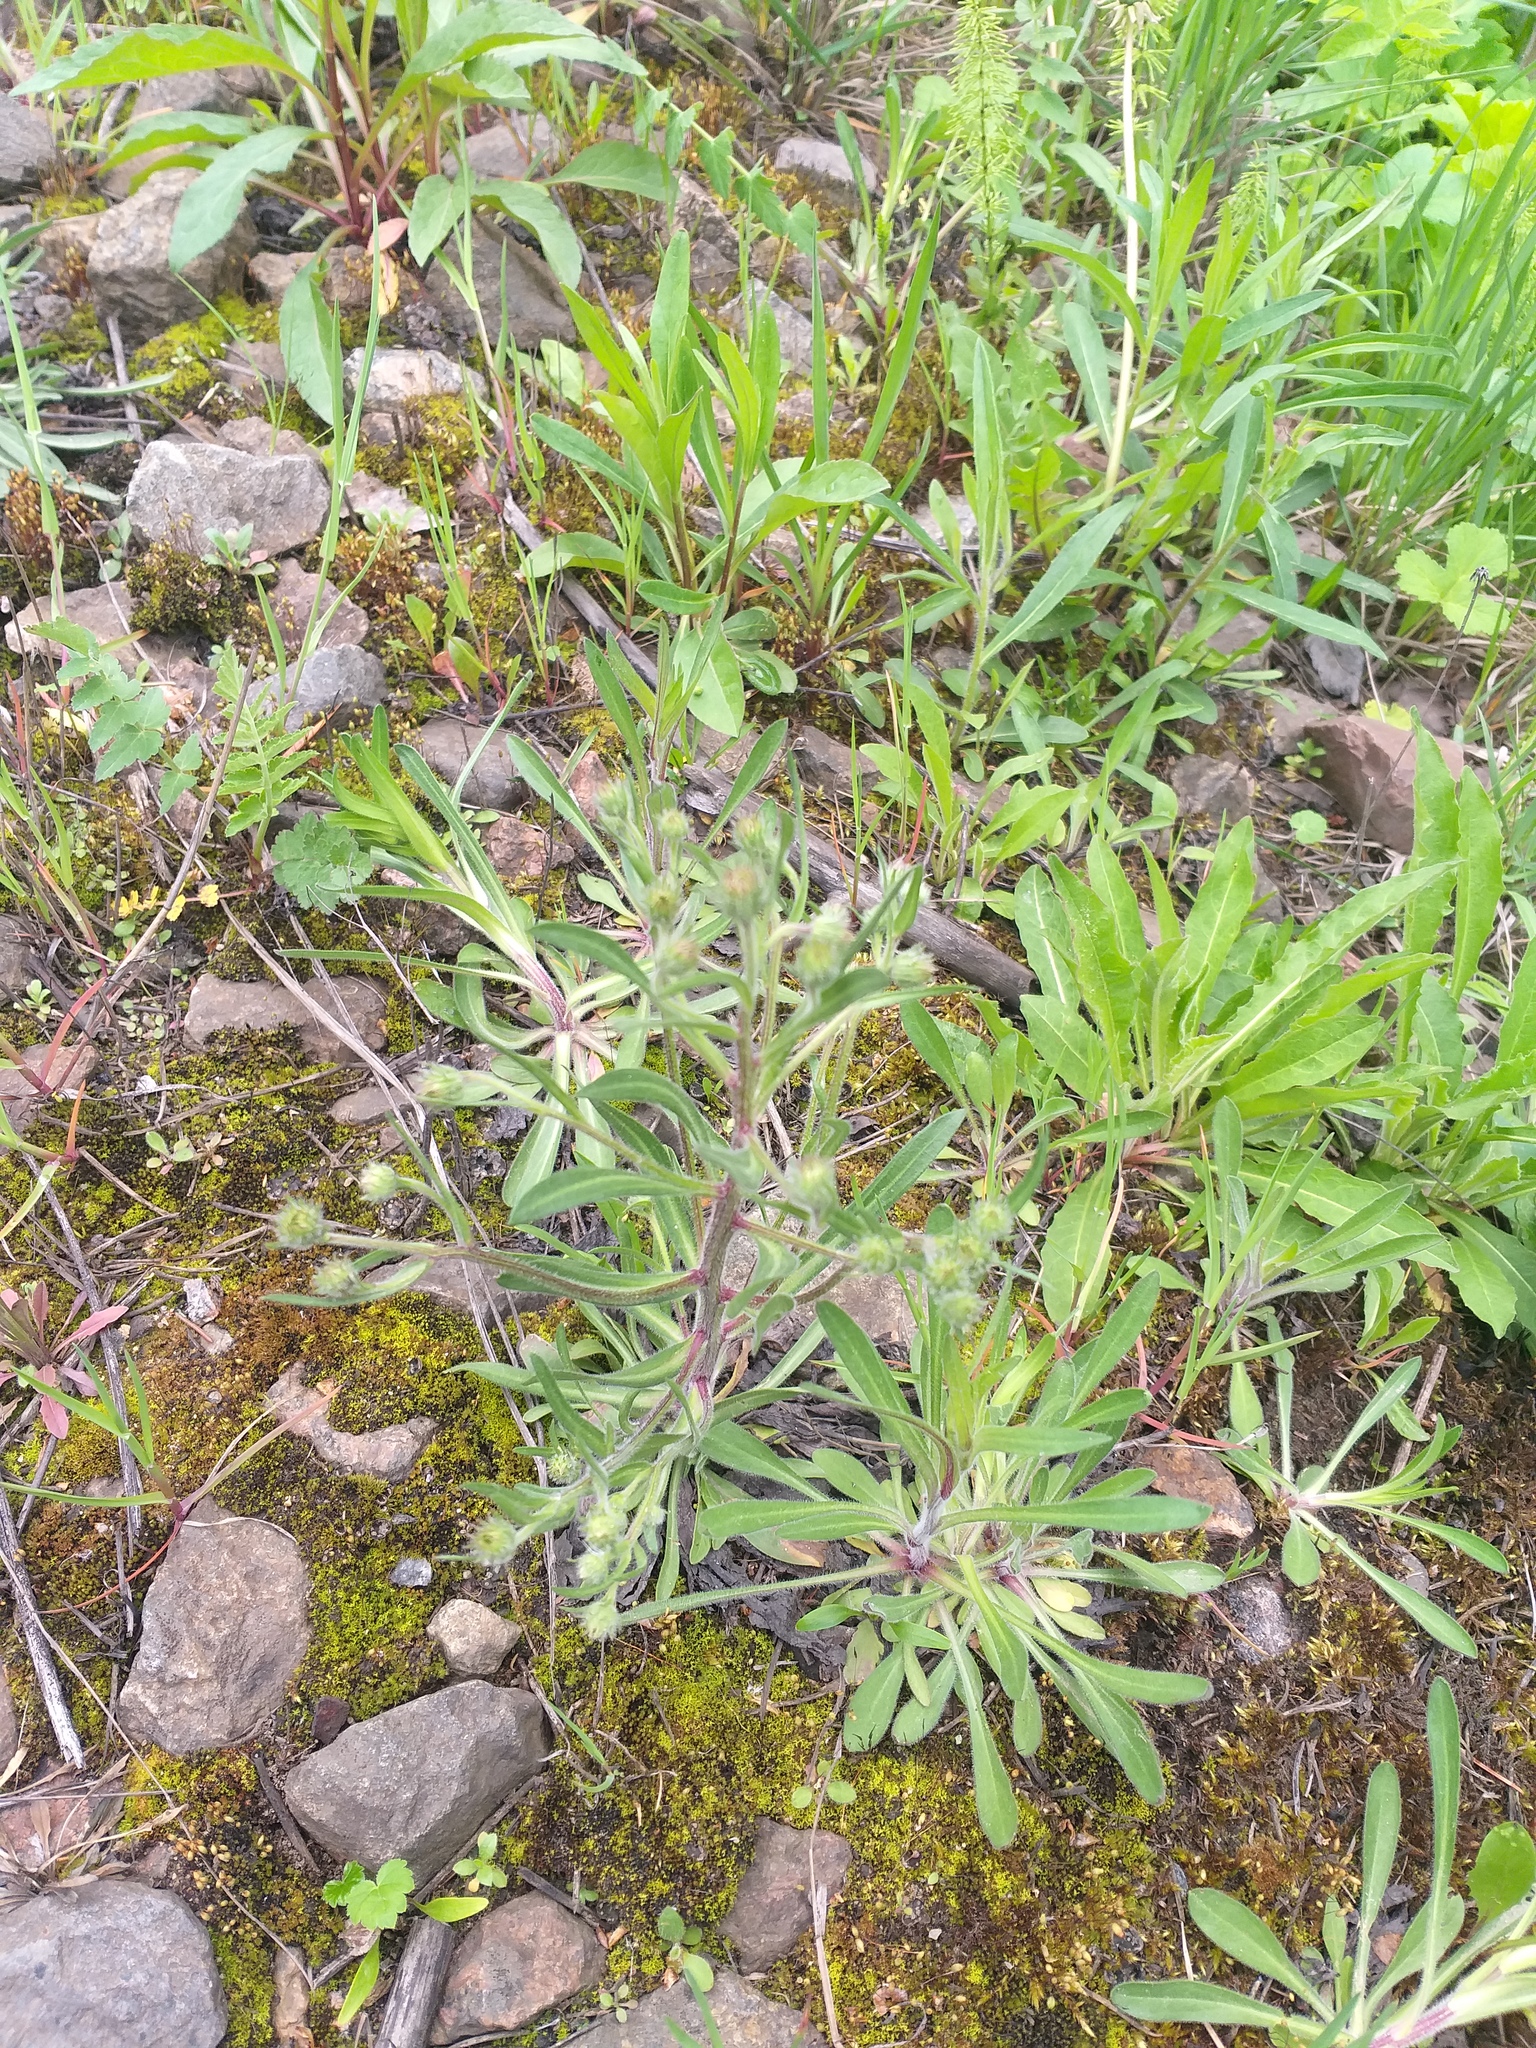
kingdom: Plantae
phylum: Tracheophyta
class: Magnoliopsida
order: Asterales
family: Asteraceae
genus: Erigeron
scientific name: Erigeron acris
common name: Blue fleabane
